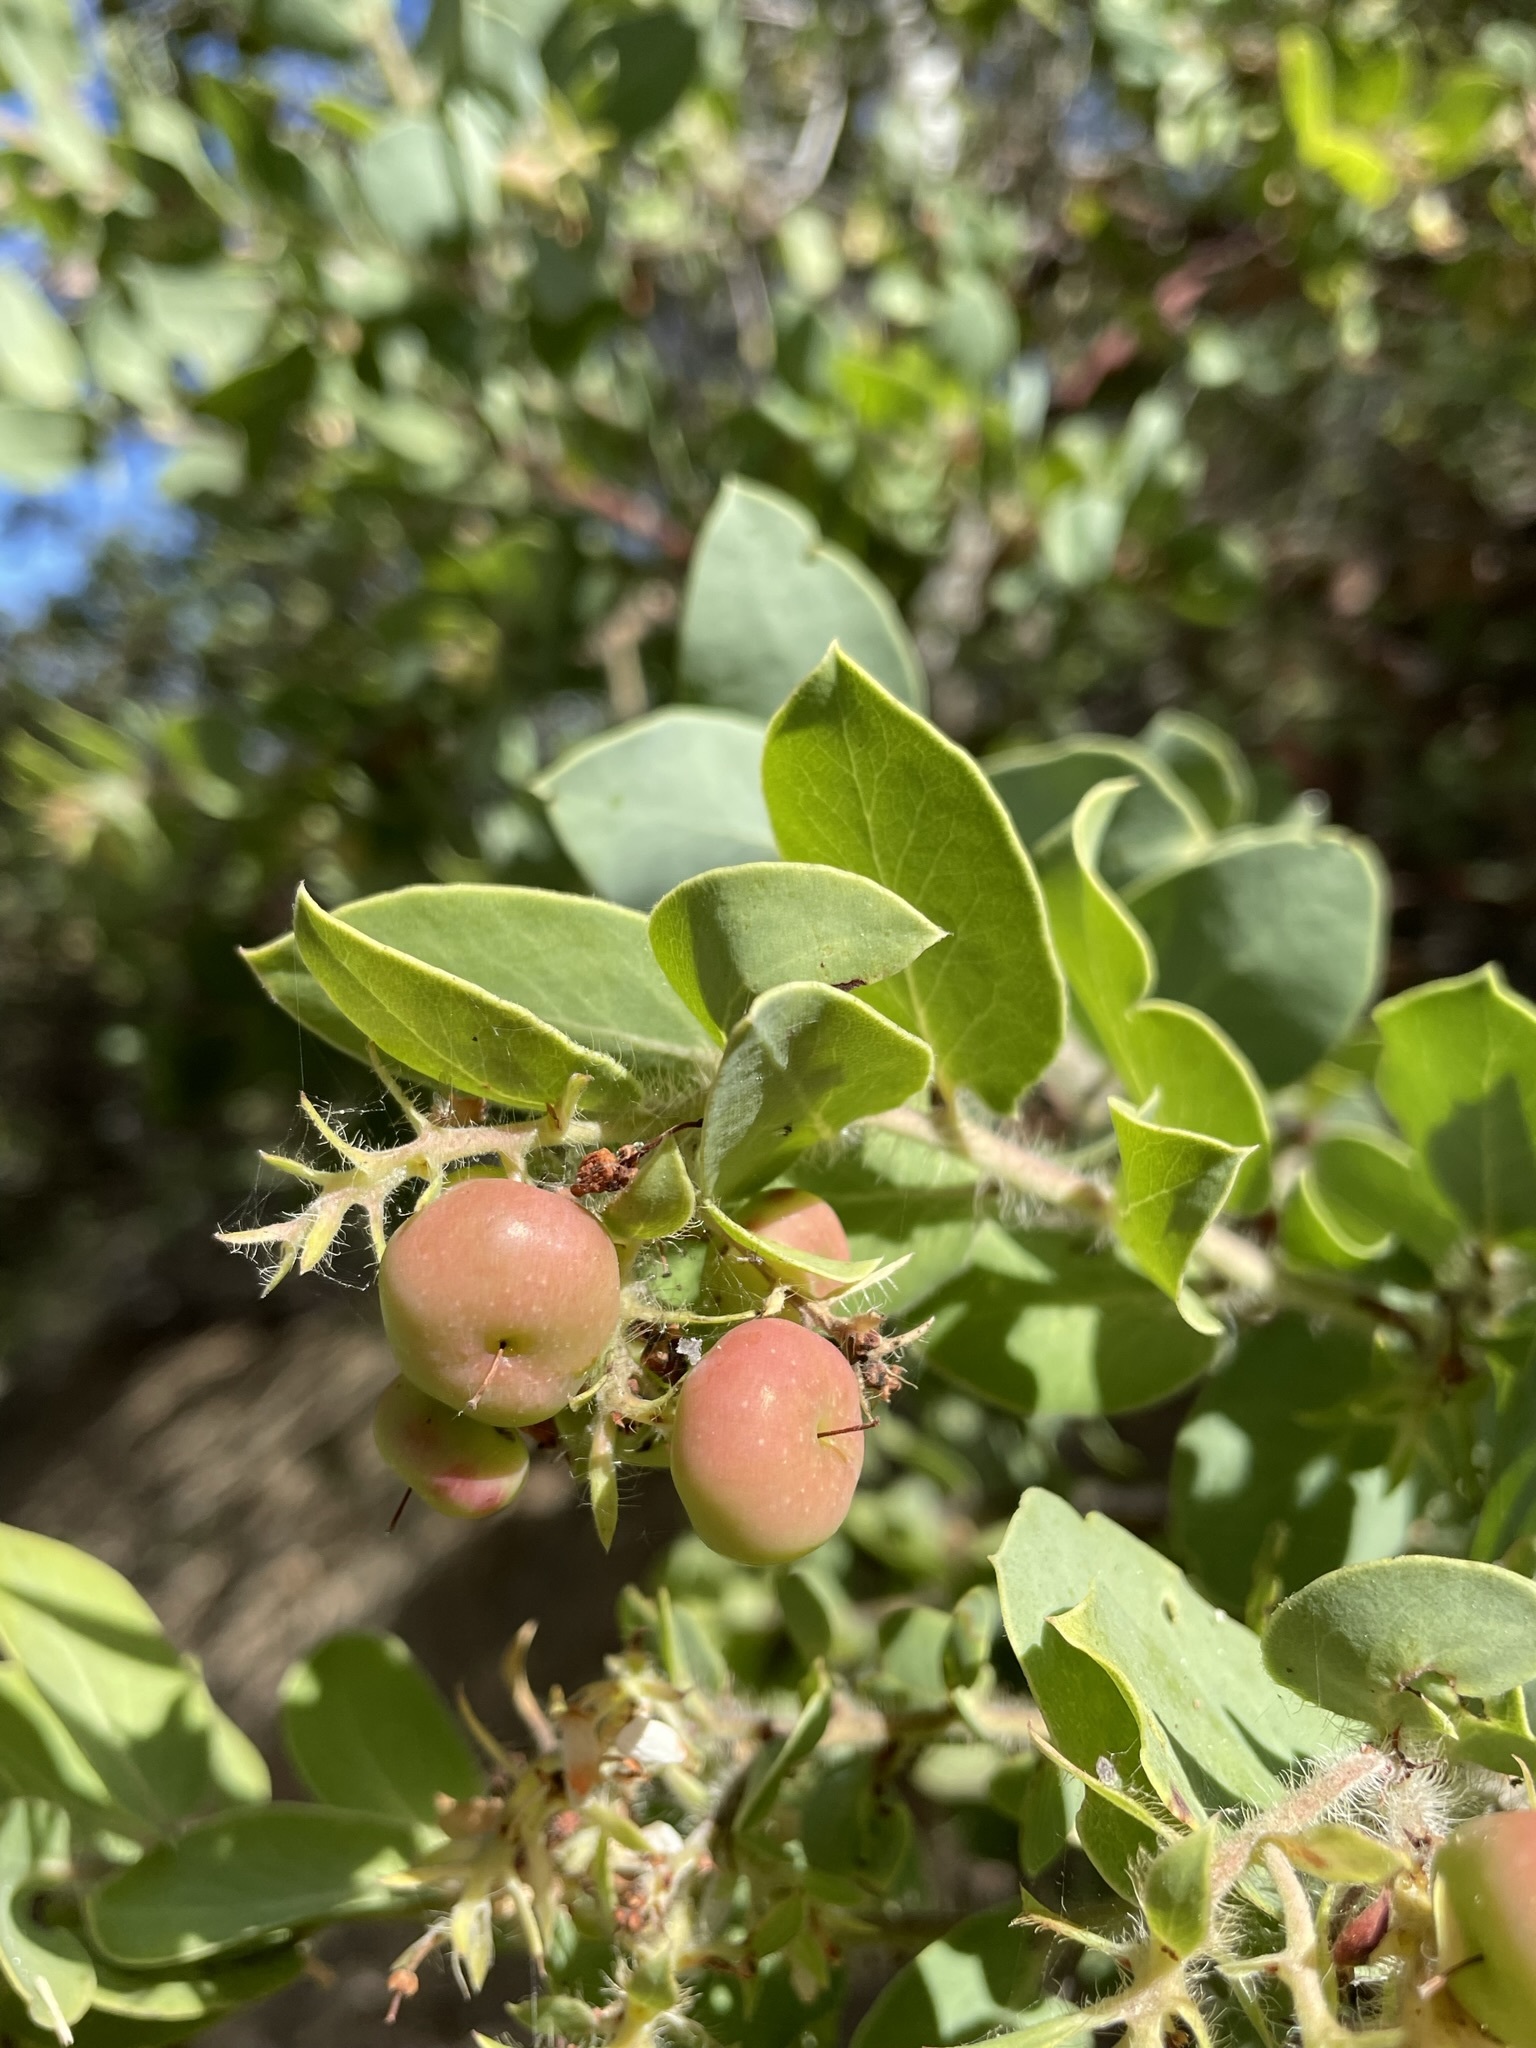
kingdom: Plantae
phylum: Tracheophyta
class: Magnoliopsida
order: Ericales
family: Ericaceae
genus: Arctostaphylos
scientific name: Arctostaphylos pechoensis
